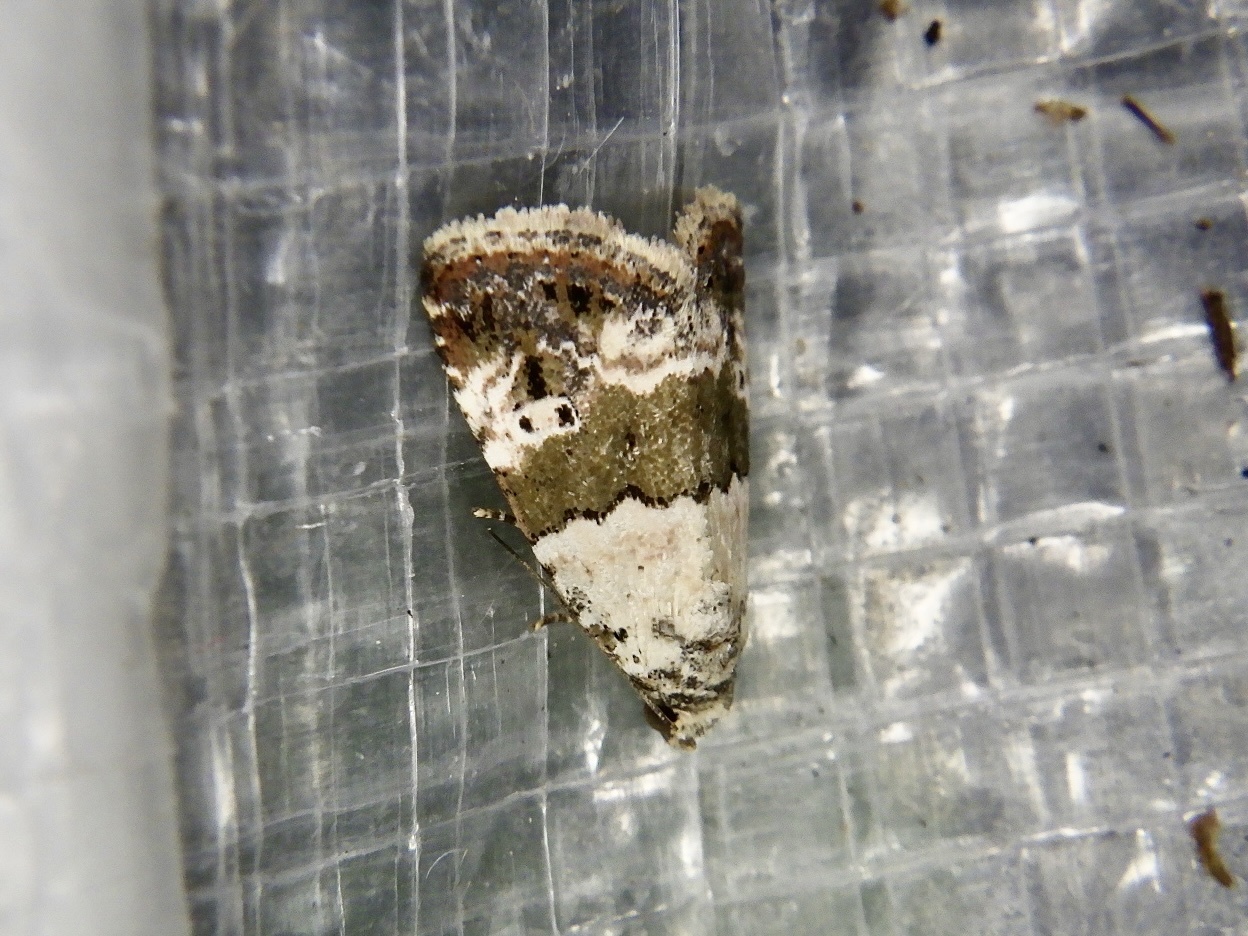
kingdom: Animalia
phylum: Arthropoda
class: Insecta
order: Lepidoptera
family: Noctuidae
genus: Maliattha
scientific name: Maliattha signifera
